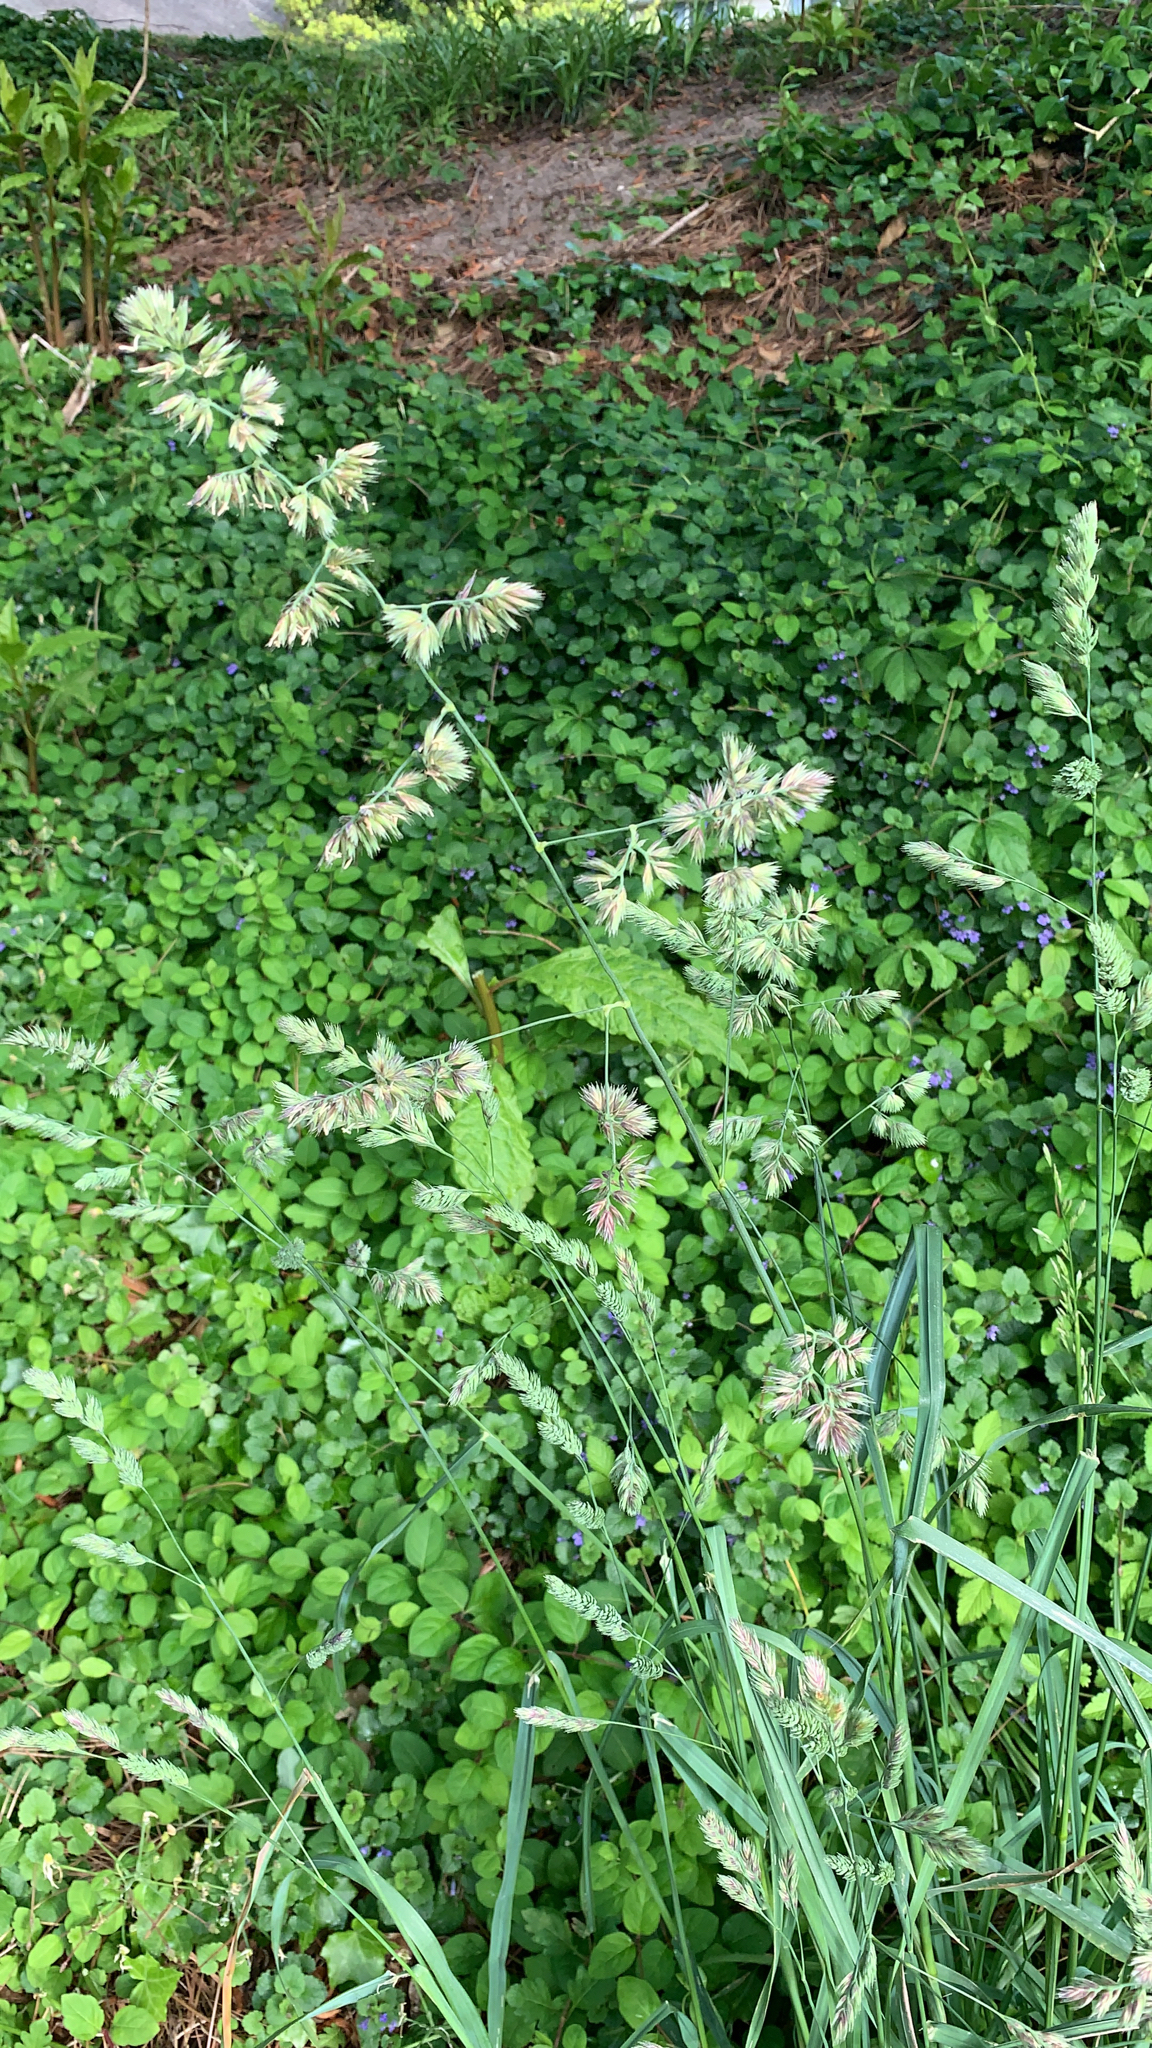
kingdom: Plantae
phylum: Tracheophyta
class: Liliopsida
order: Poales
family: Poaceae
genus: Dactylis
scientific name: Dactylis glomerata
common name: Orchardgrass
